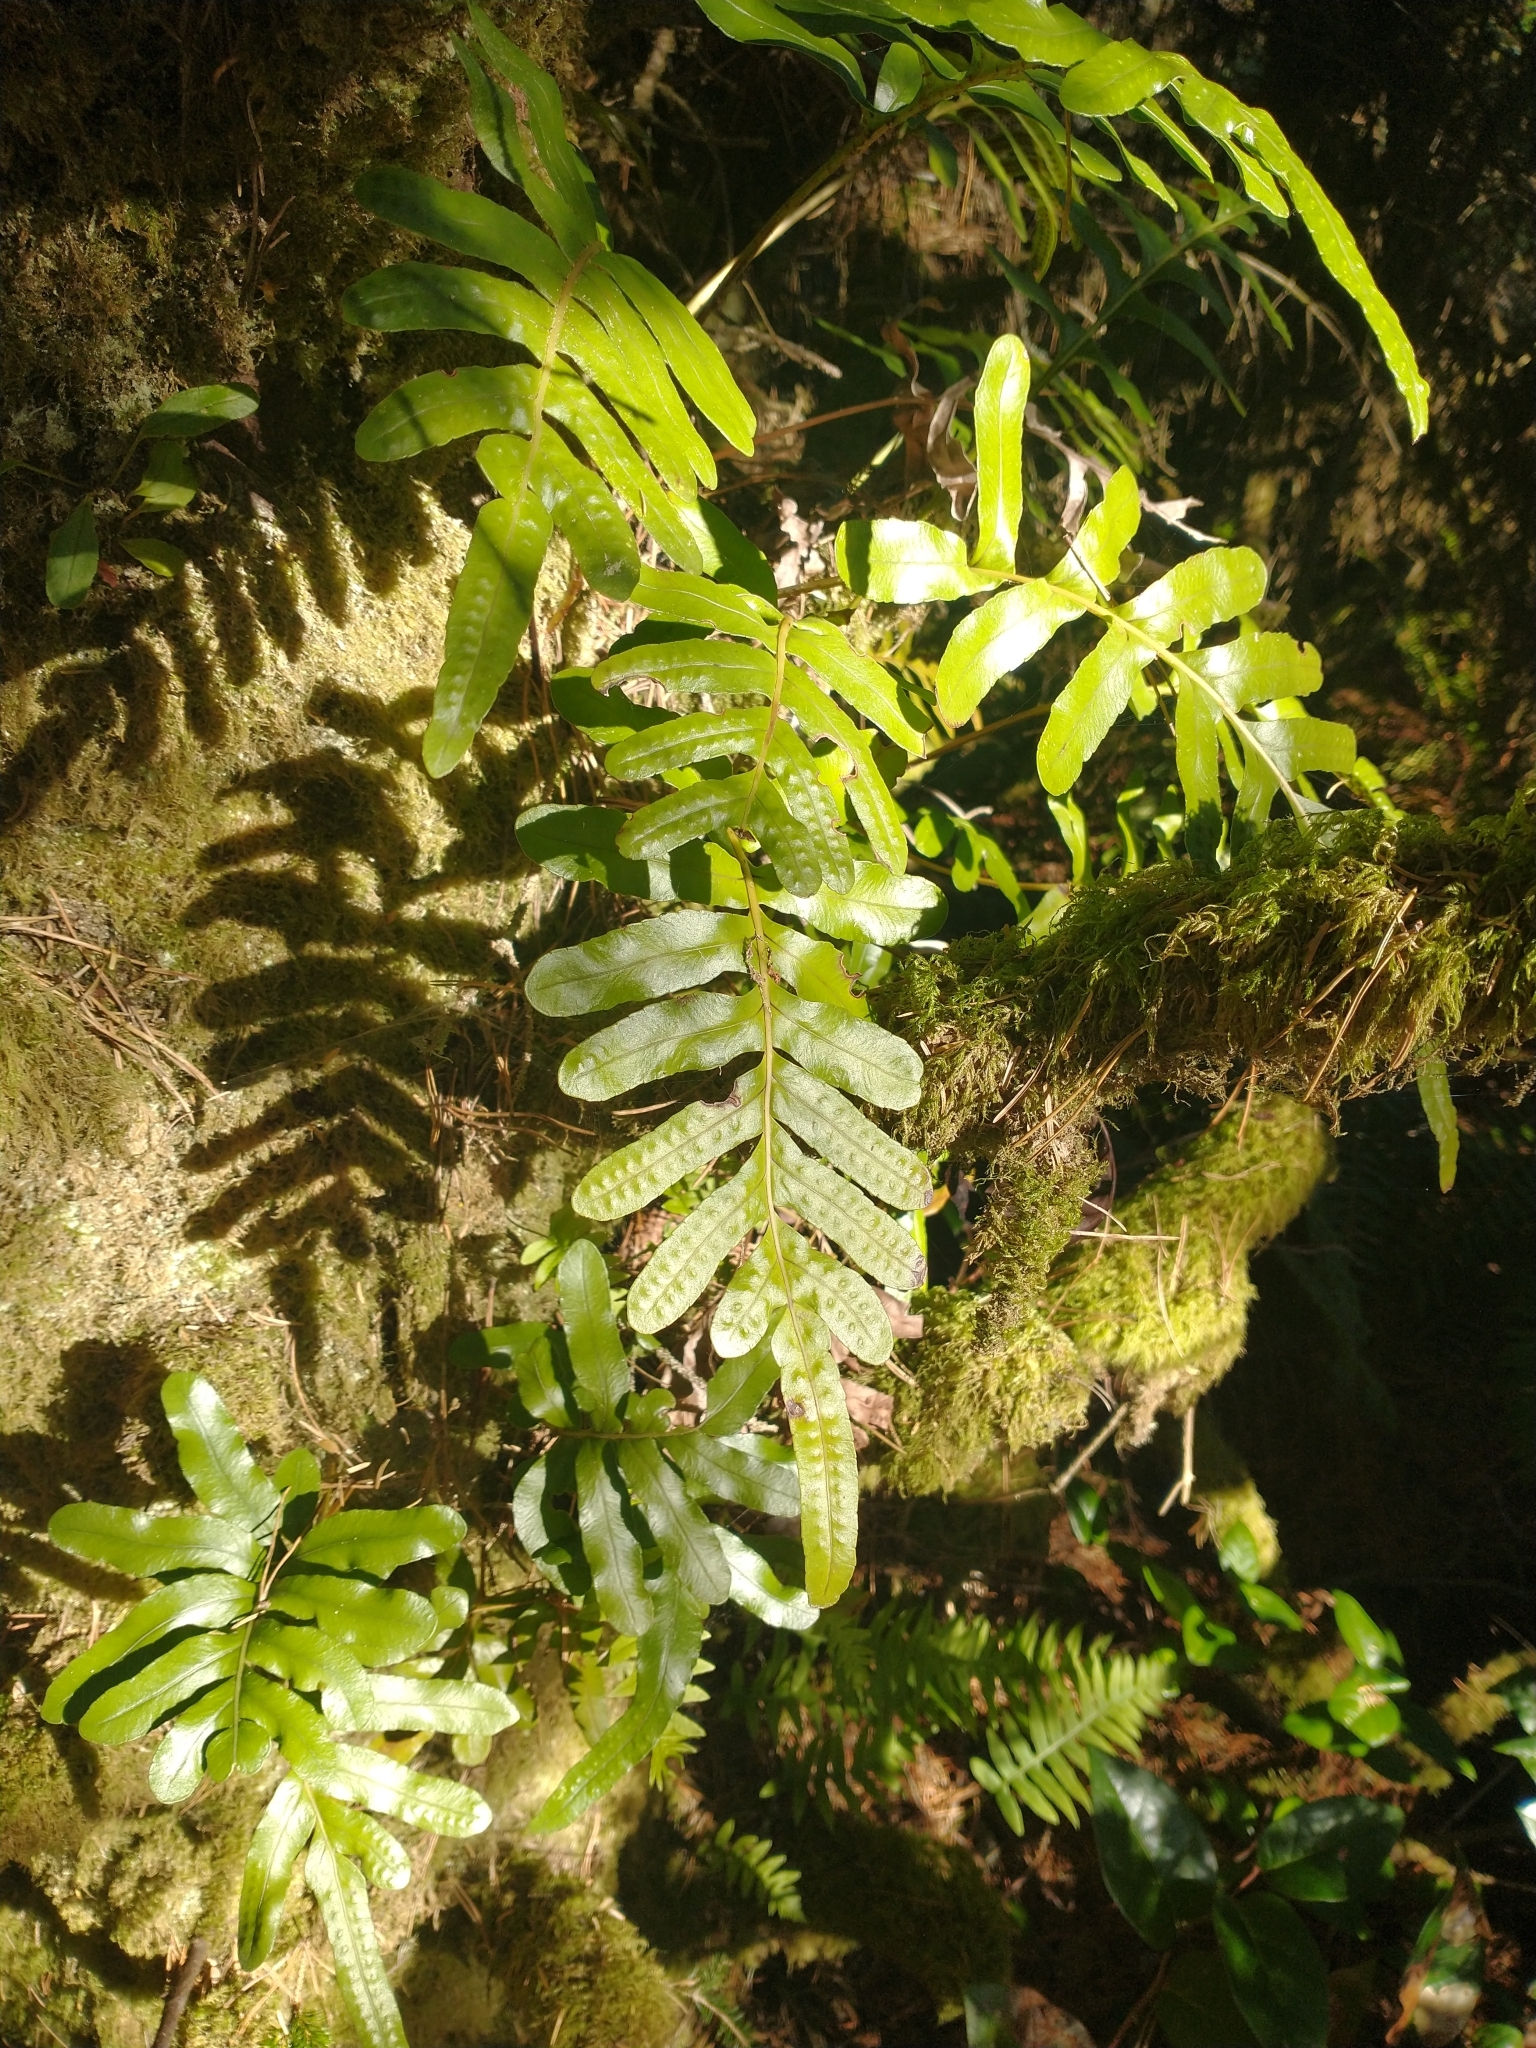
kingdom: Plantae
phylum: Tracheophyta
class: Polypodiopsida
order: Polypodiales
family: Polypodiaceae
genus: Polypodium
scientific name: Polypodium scouleri
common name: Scouler's polypody
